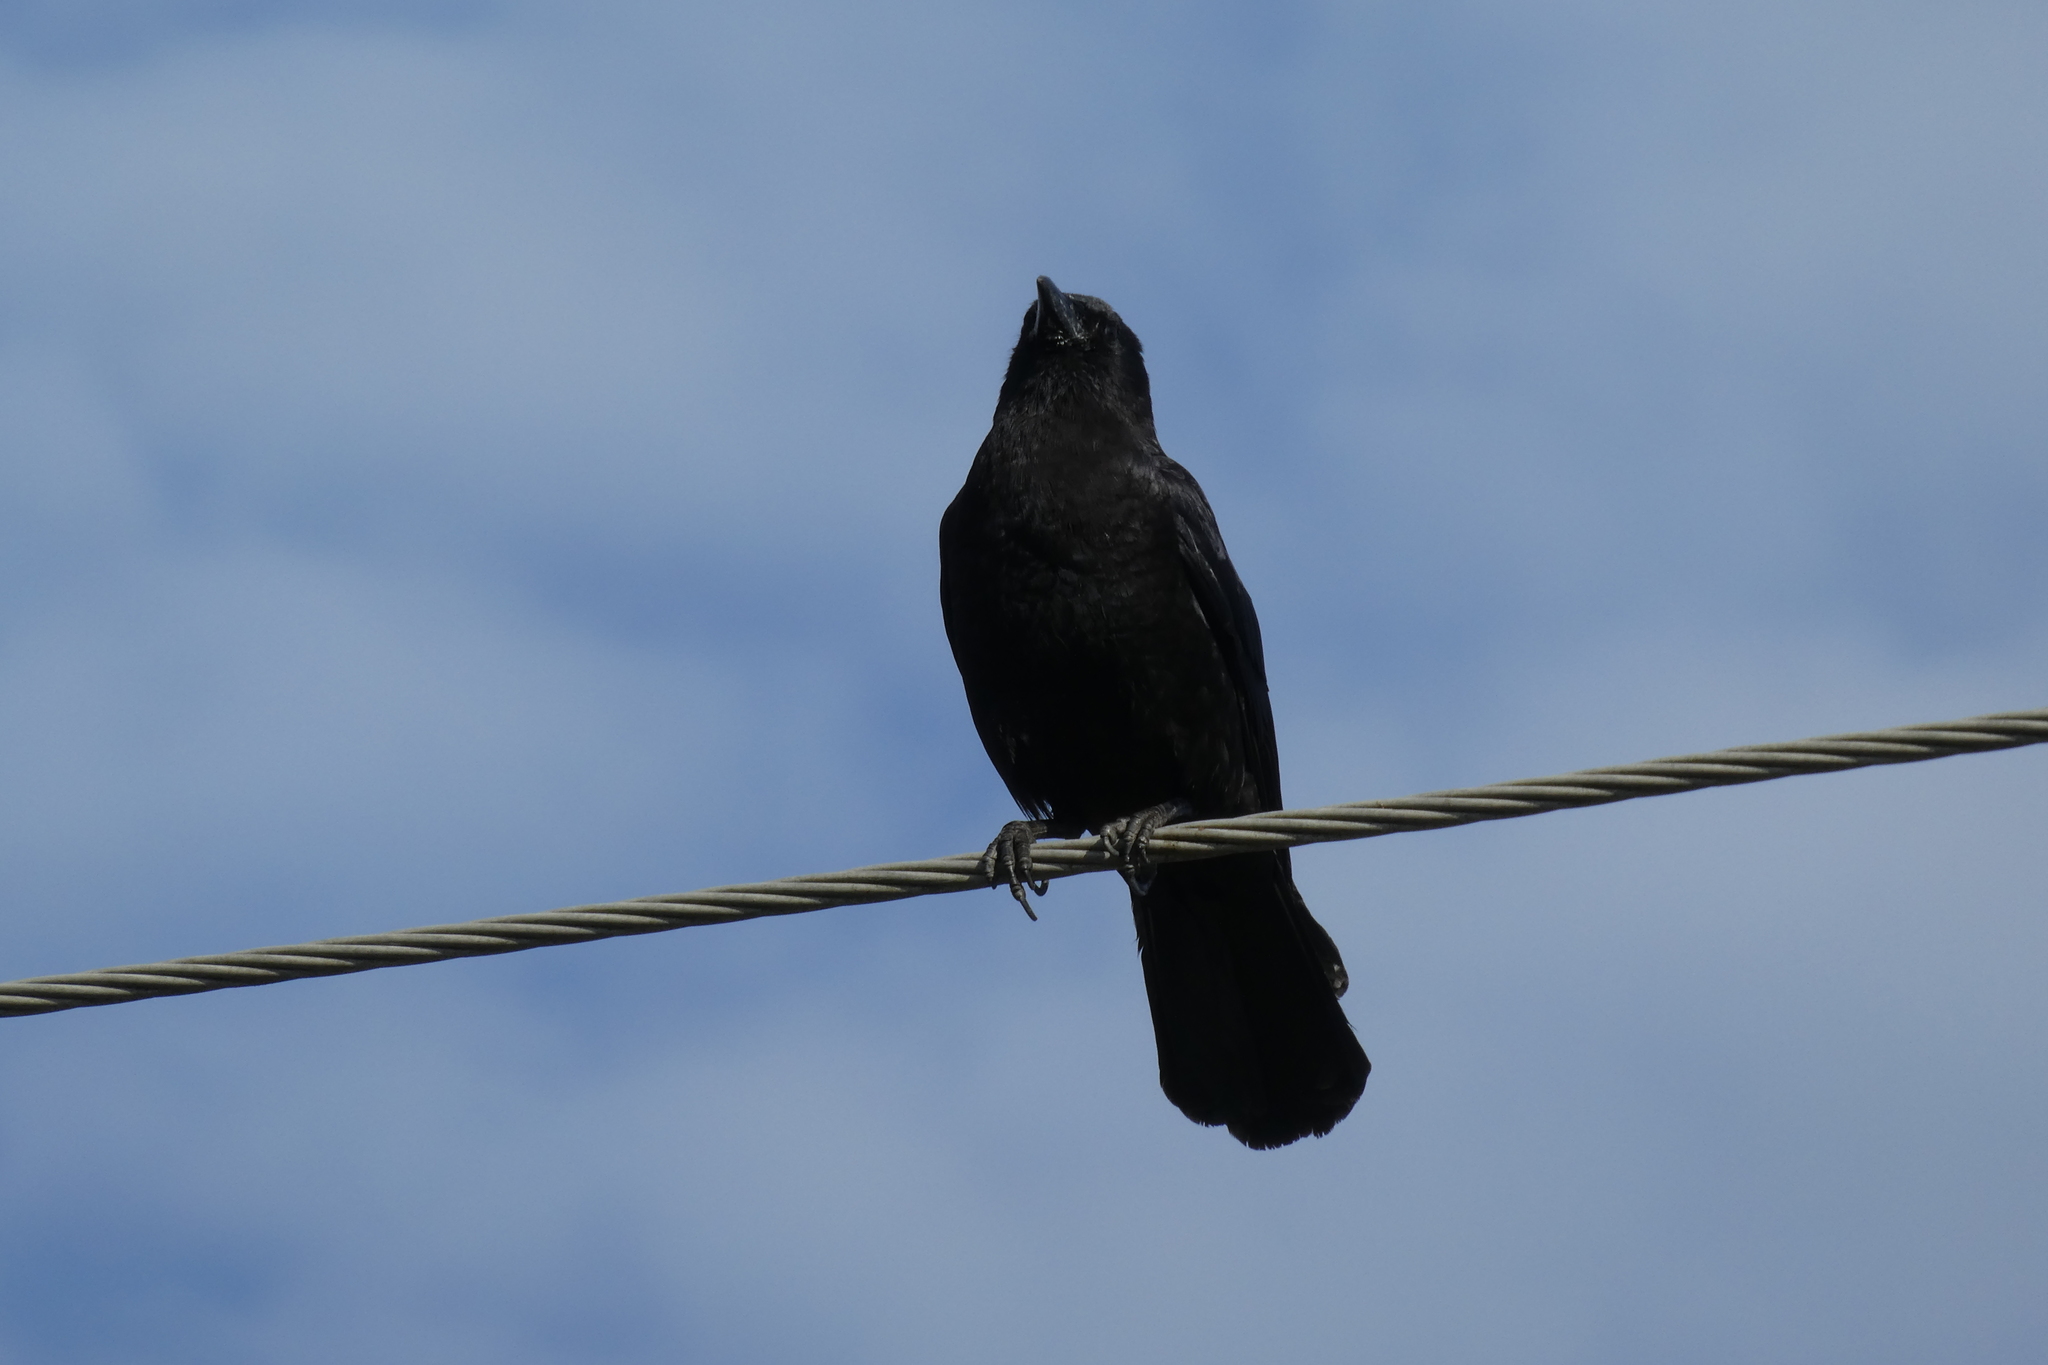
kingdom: Animalia
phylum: Chordata
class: Aves
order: Passeriformes
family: Corvidae
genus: Corvus
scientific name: Corvus brachyrhynchos
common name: American crow
